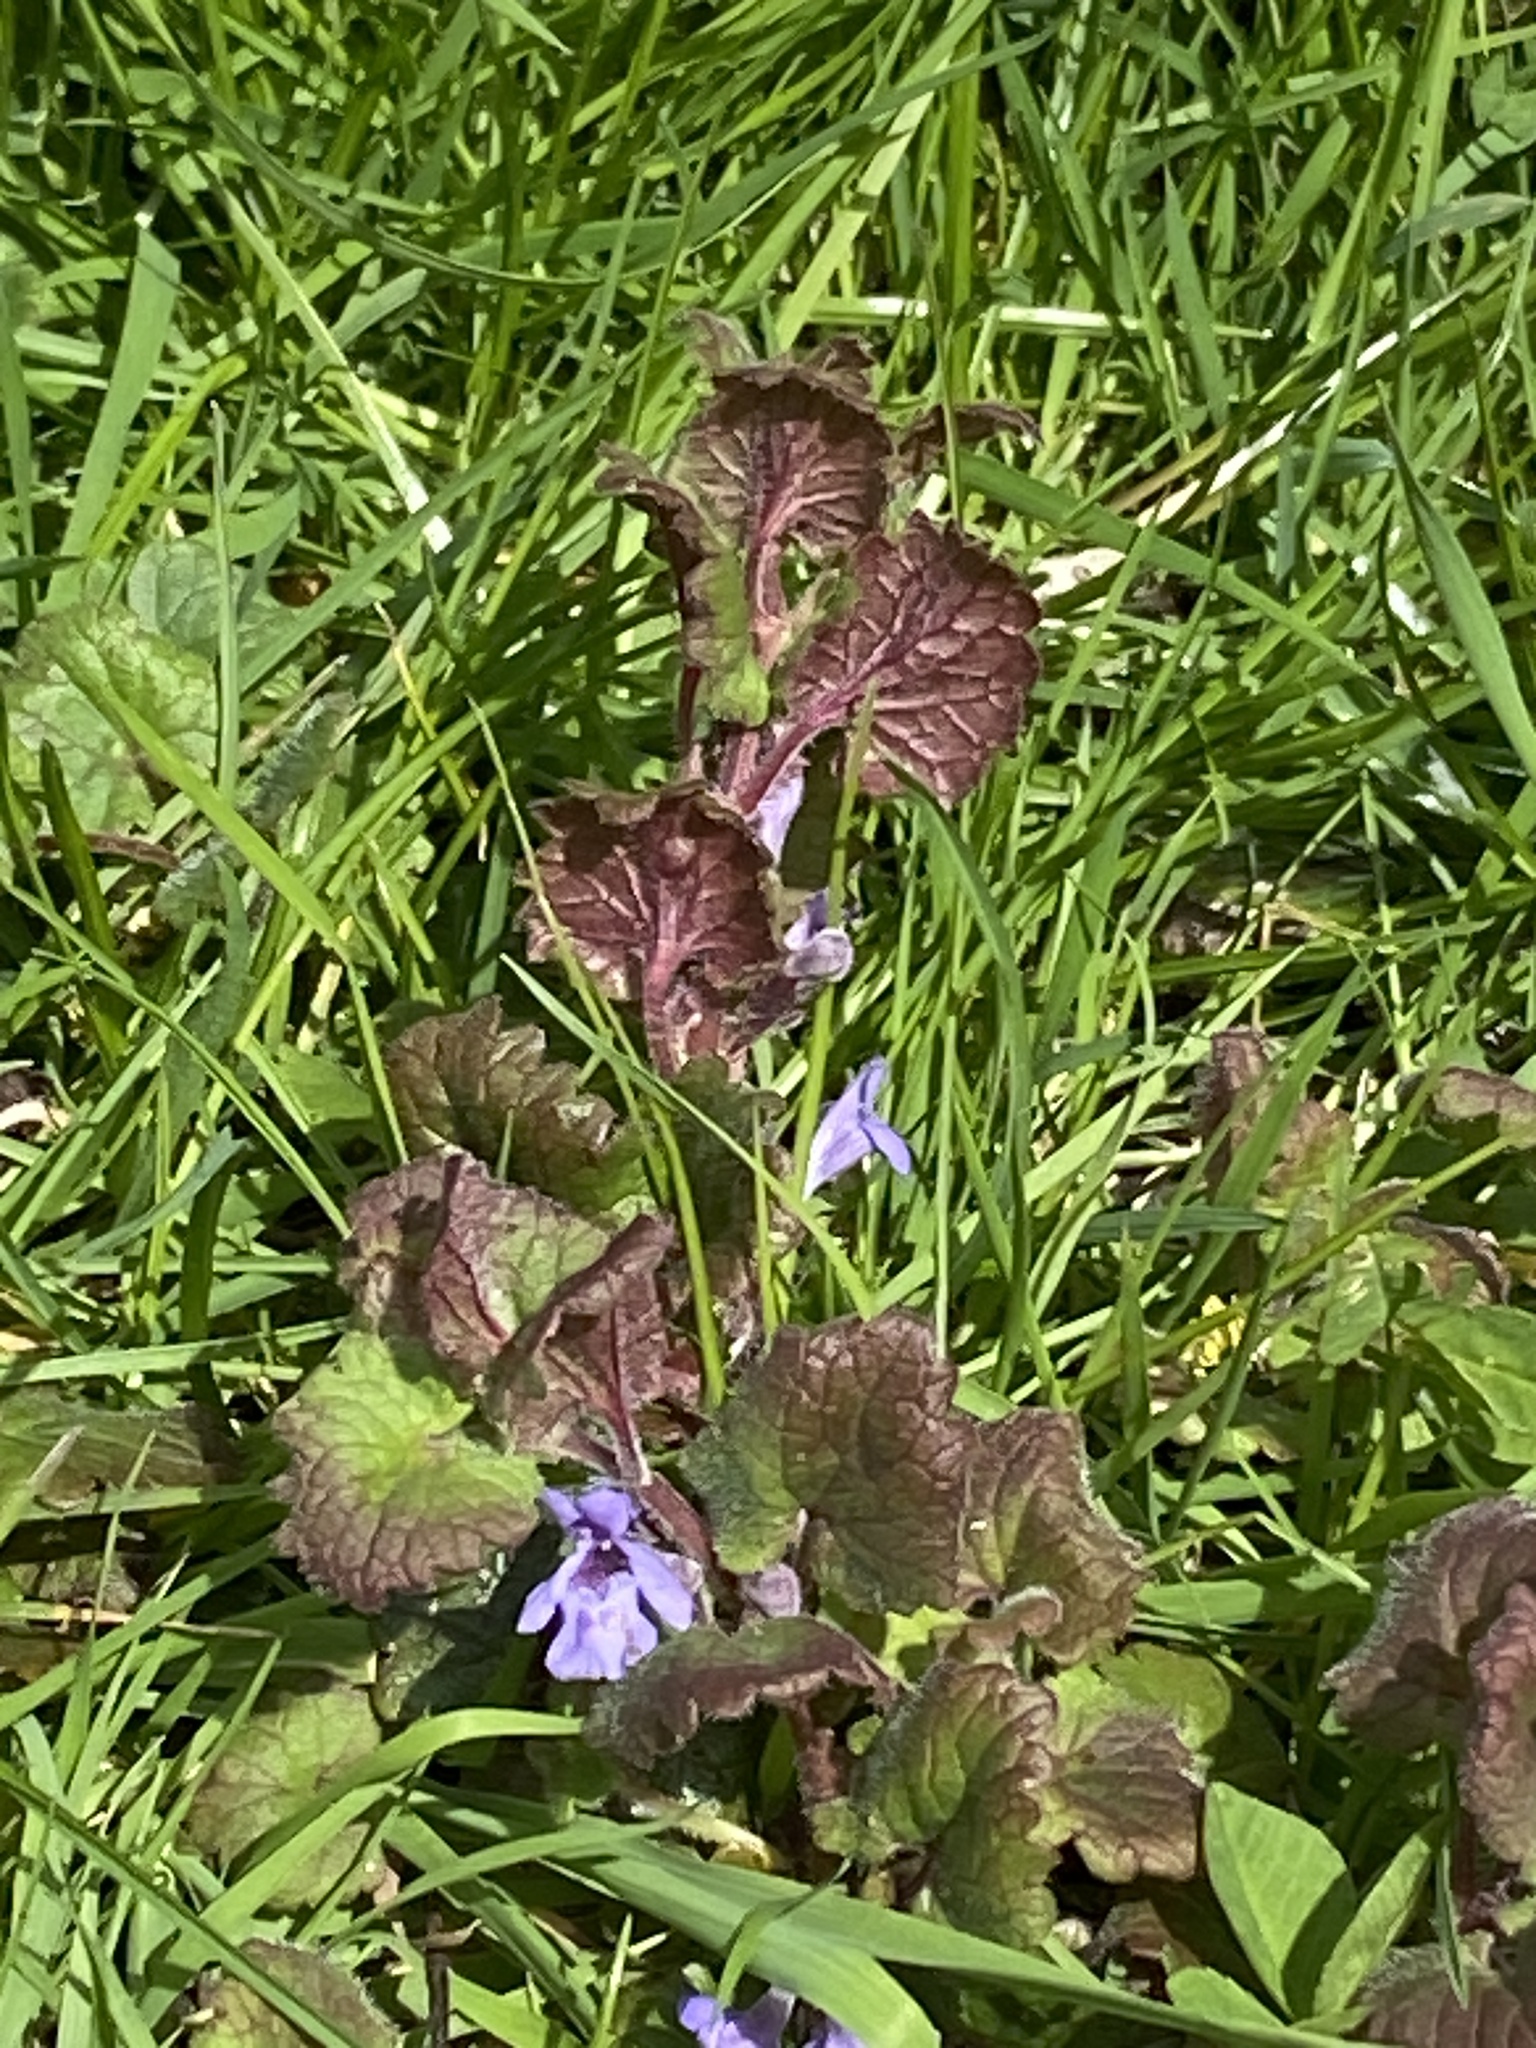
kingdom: Plantae
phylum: Tracheophyta
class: Magnoliopsida
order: Lamiales
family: Lamiaceae
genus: Glechoma
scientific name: Glechoma hederacea
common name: Ground ivy
